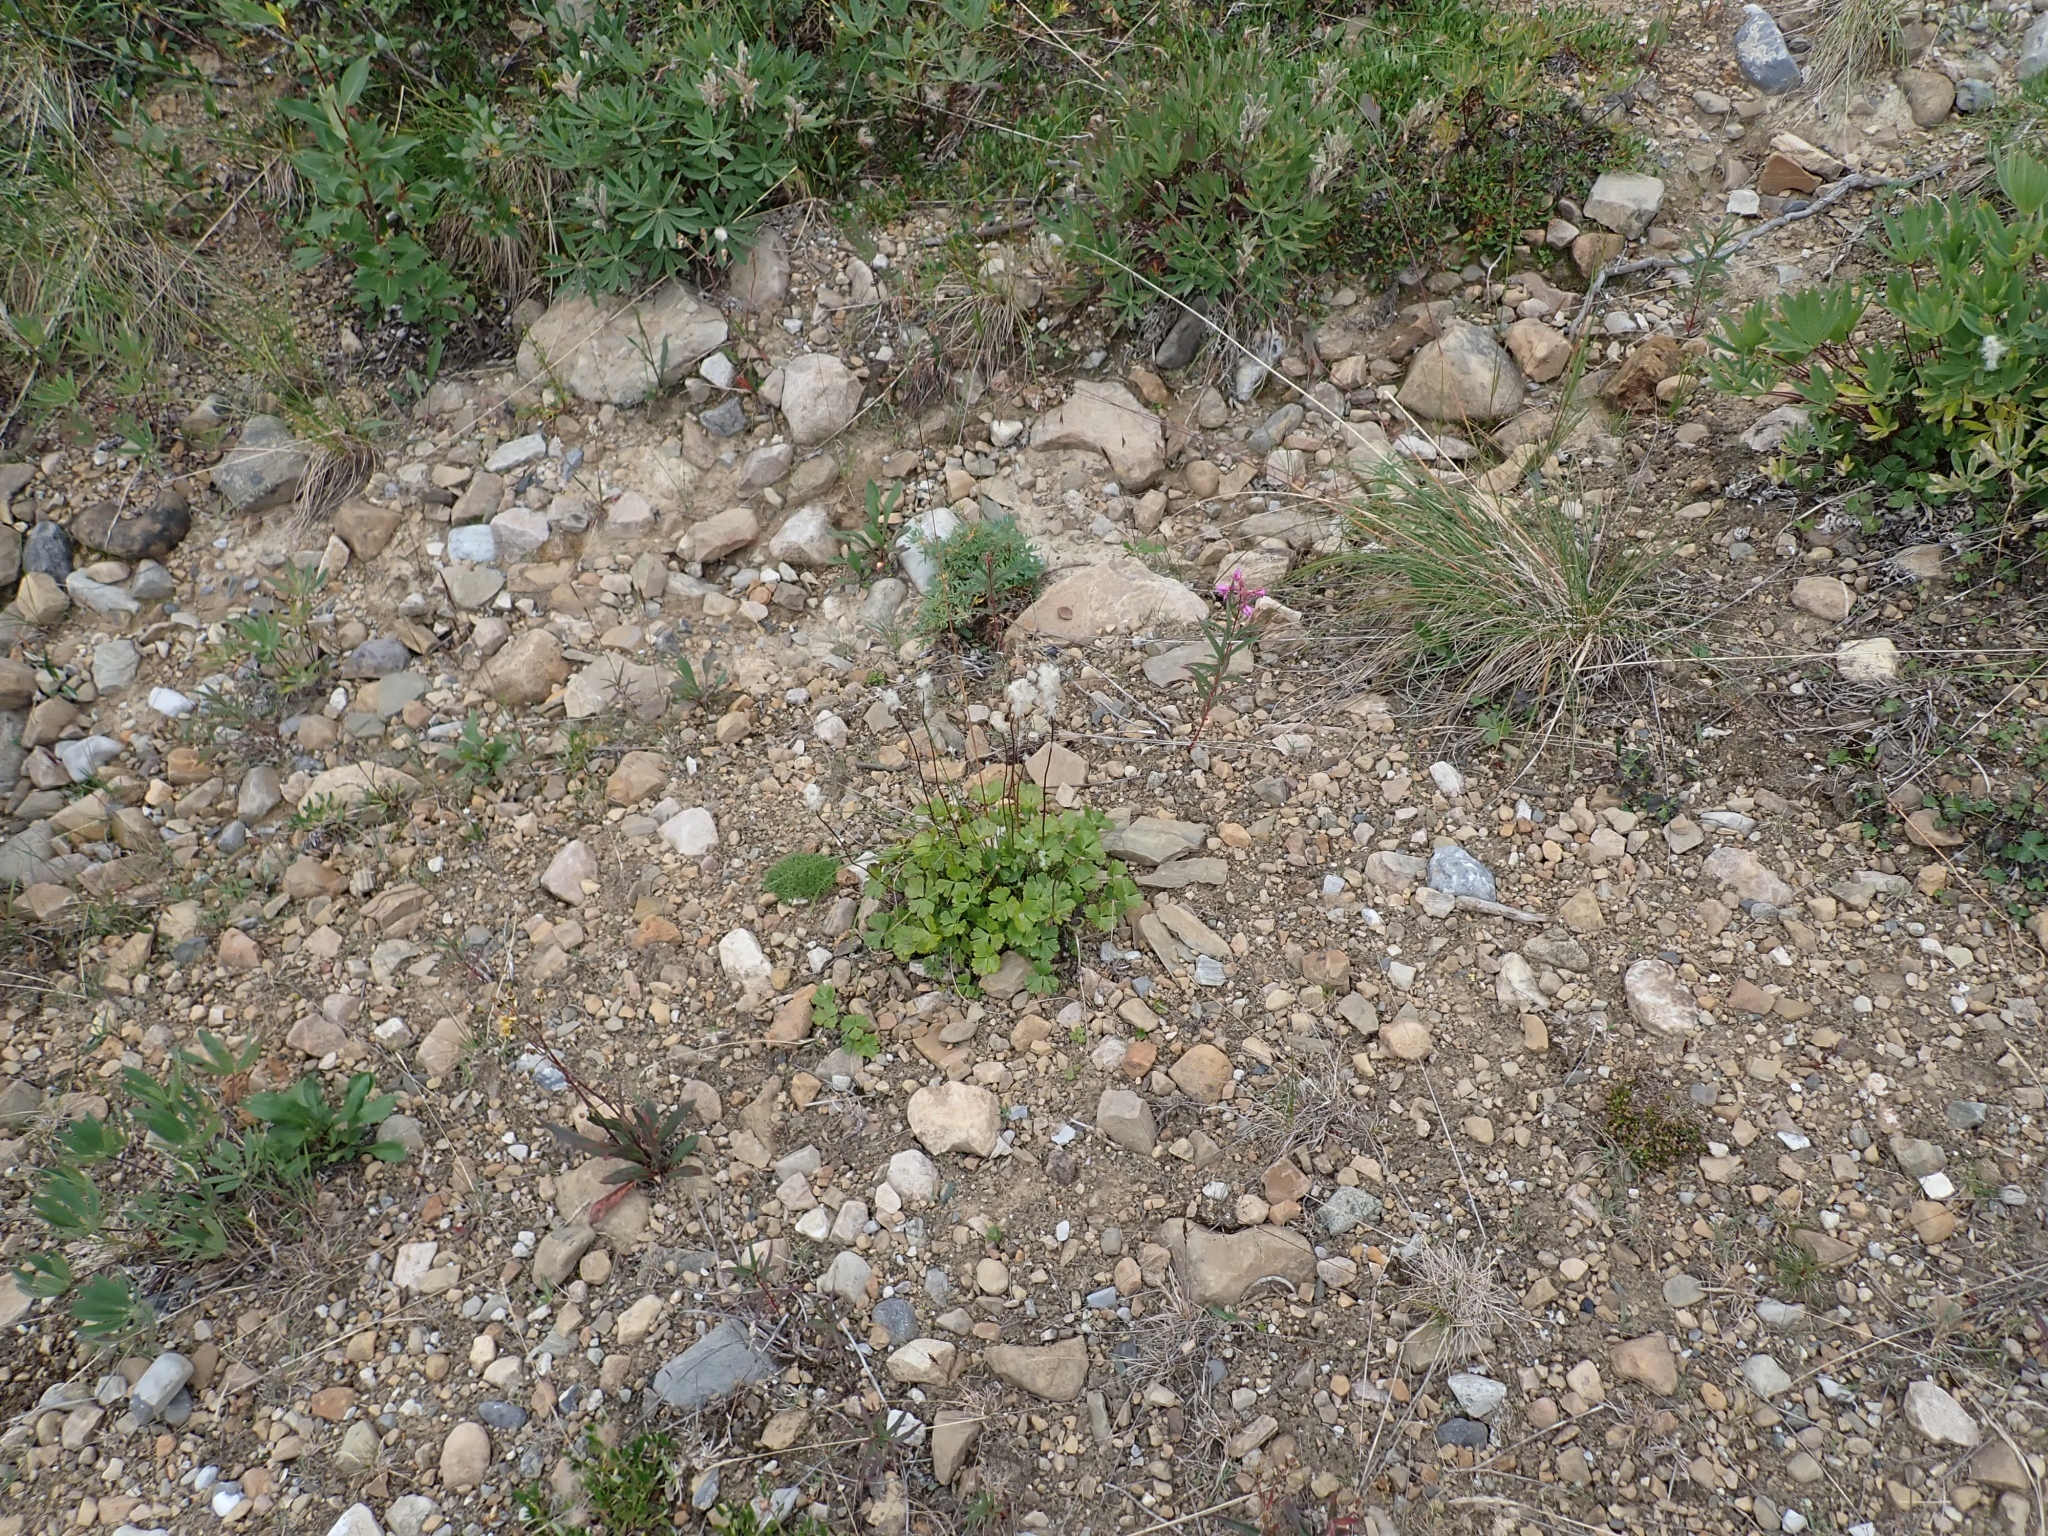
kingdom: Plantae
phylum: Tracheophyta
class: Magnoliopsida
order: Ranunculales
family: Ranunculaceae
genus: Anemone
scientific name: Anemone parviflora
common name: Northern anemone
